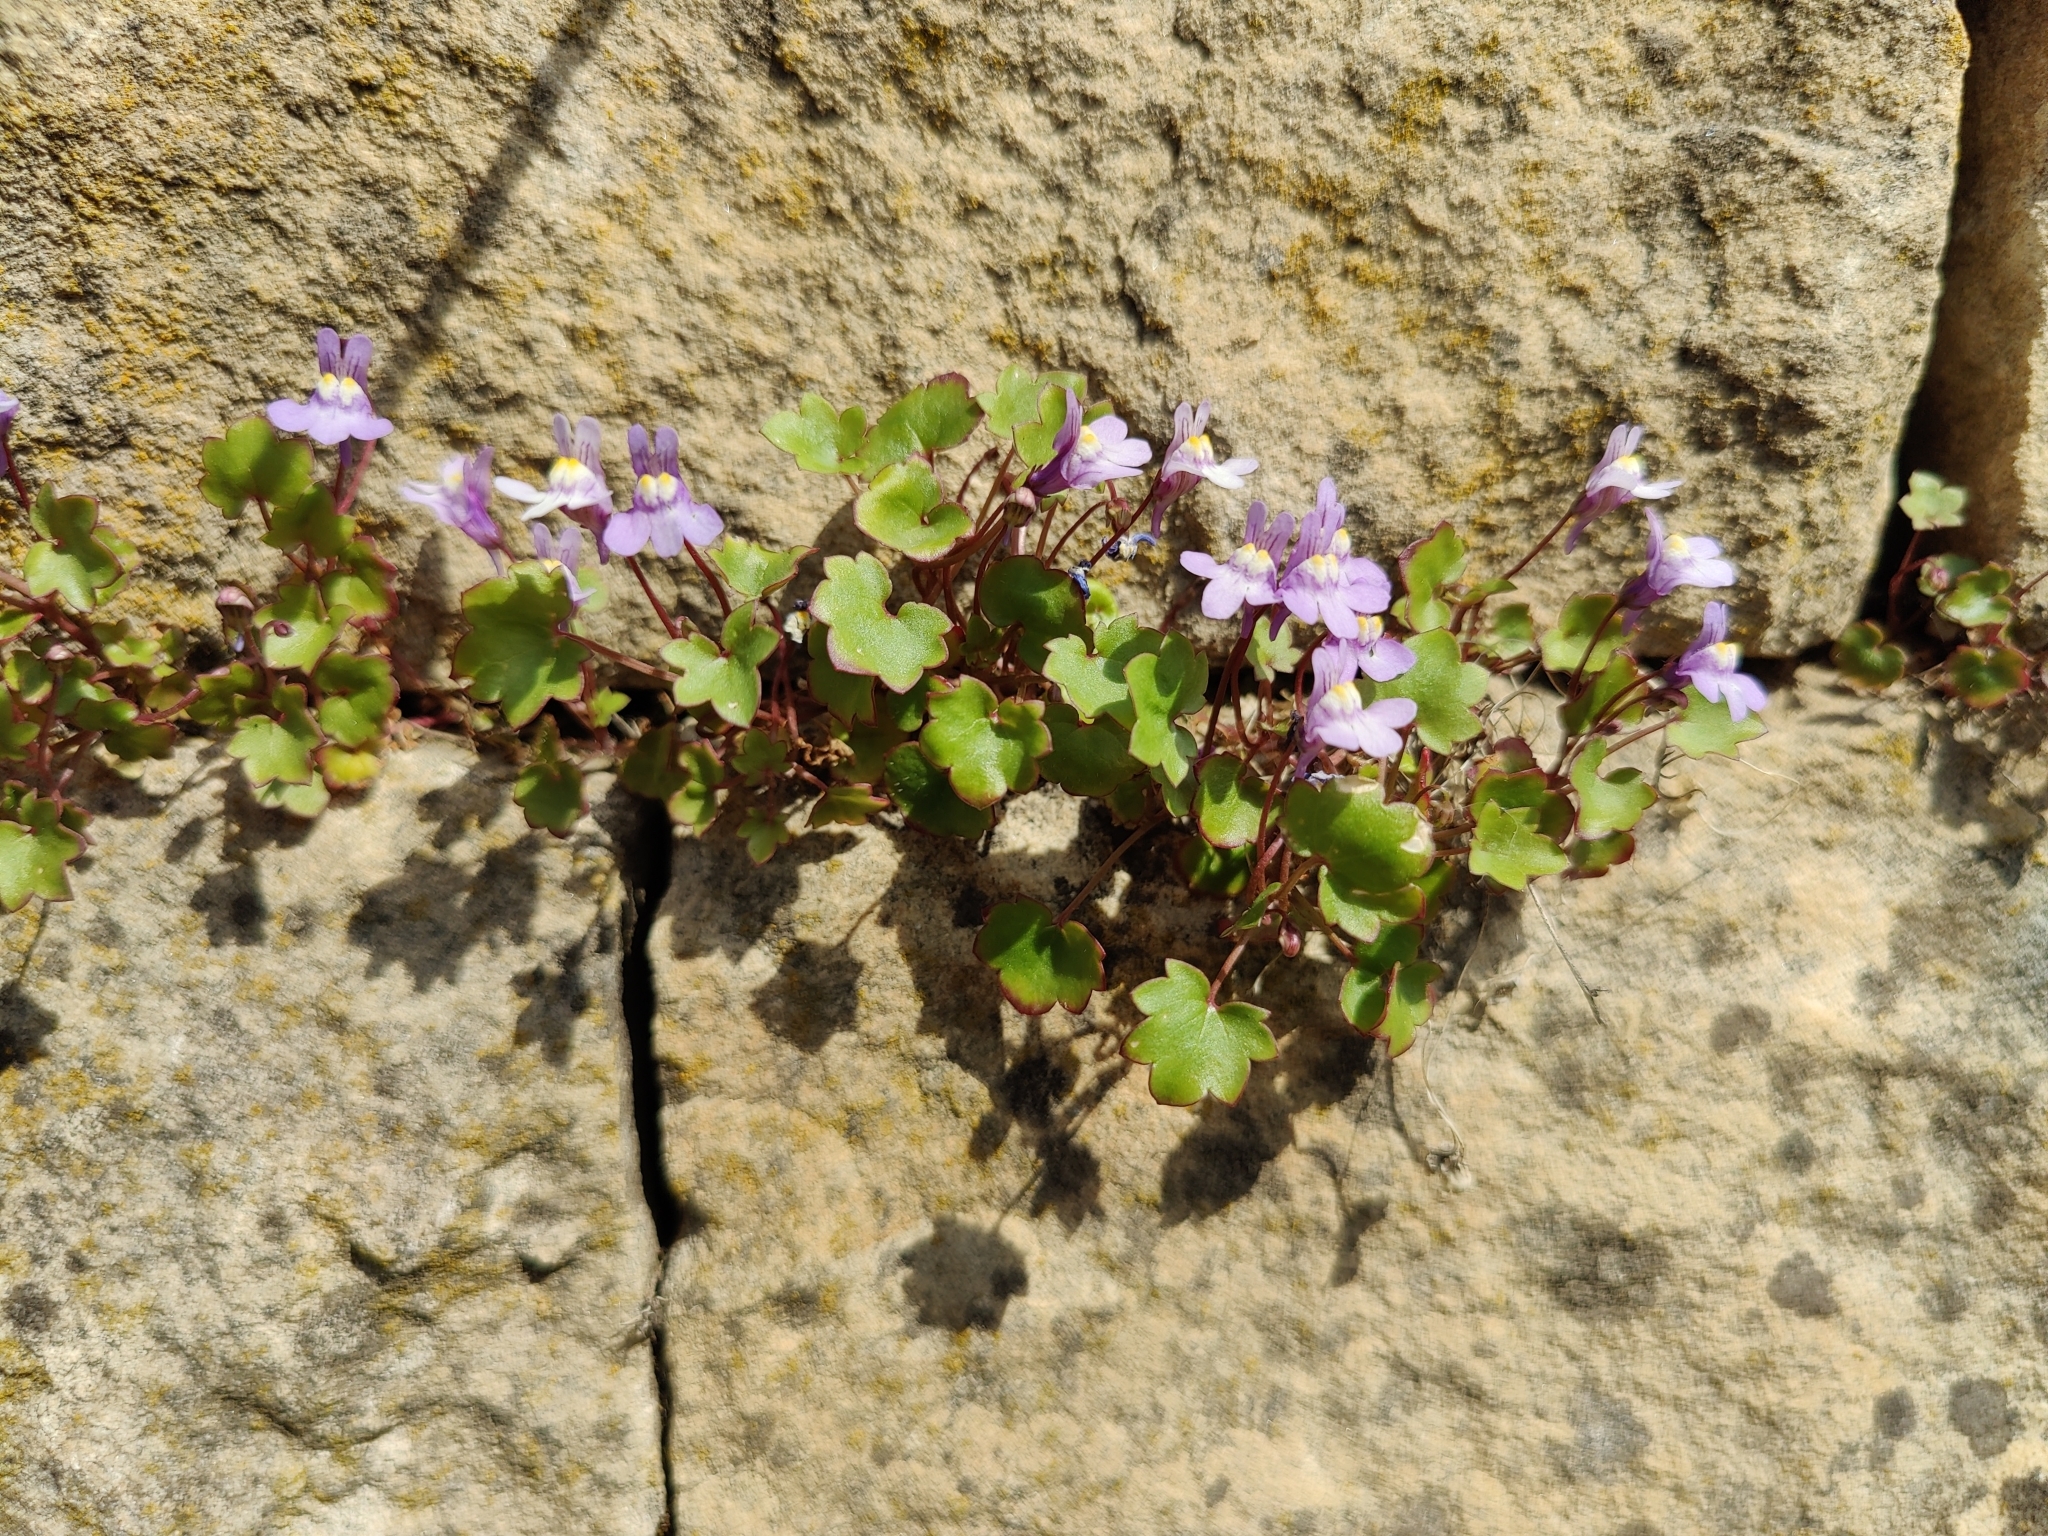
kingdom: Plantae
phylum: Tracheophyta
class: Magnoliopsida
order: Lamiales
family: Plantaginaceae
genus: Cymbalaria
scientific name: Cymbalaria muralis
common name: Ivy-leaved toadflax
